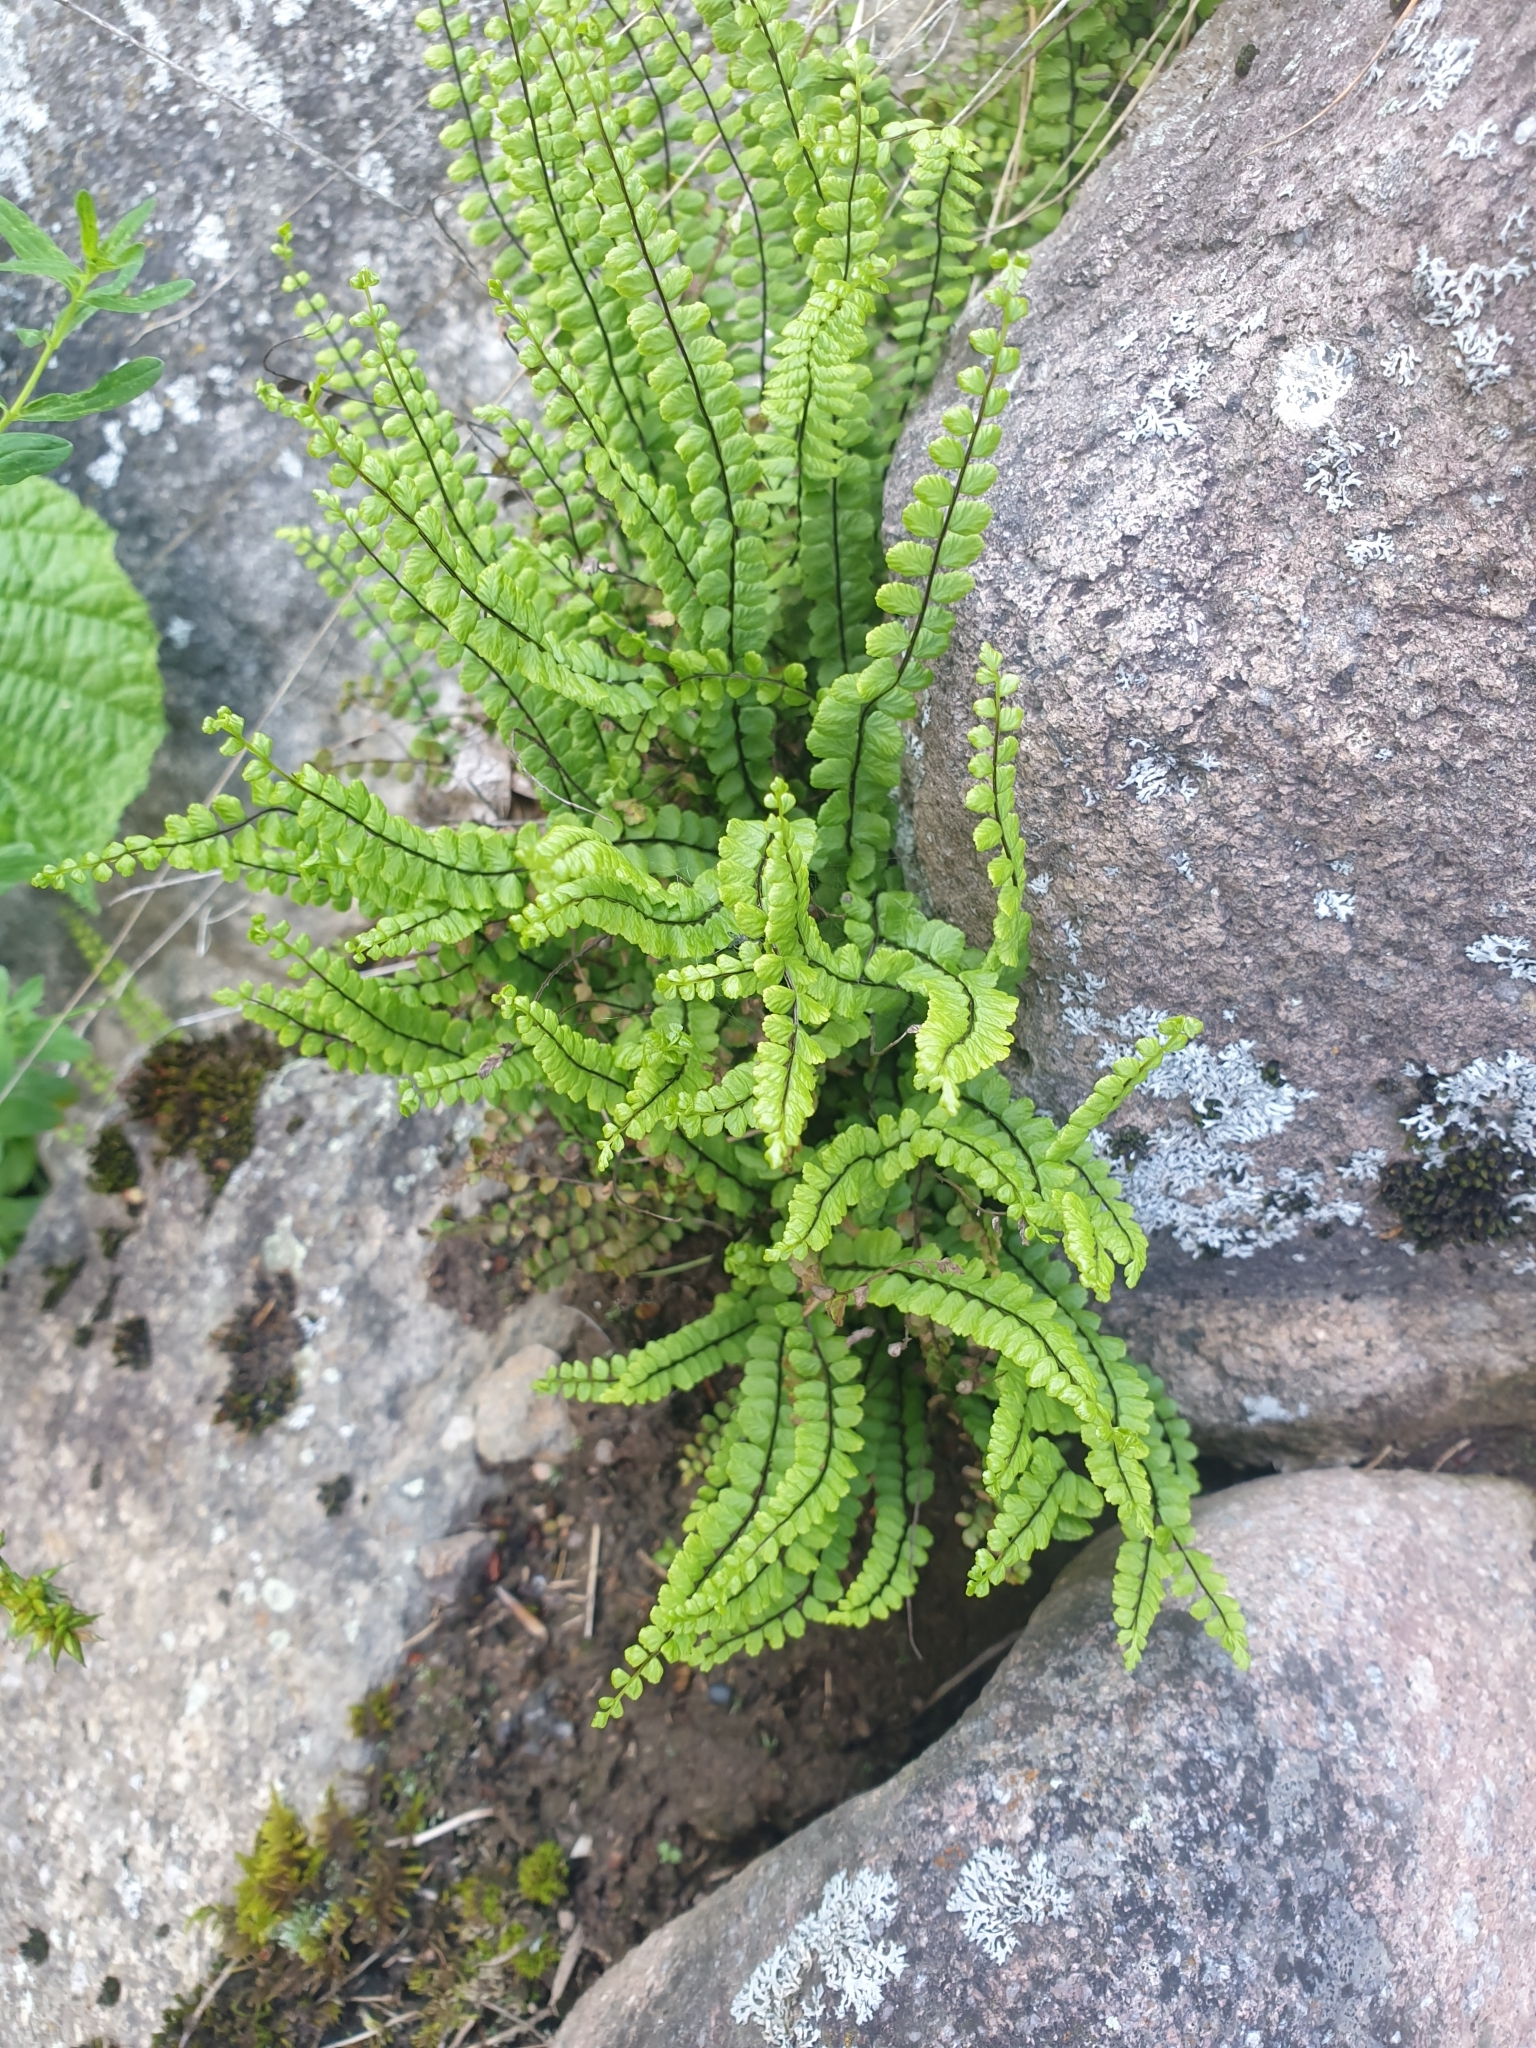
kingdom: Plantae
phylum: Tracheophyta
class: Polypodiopsida
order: Polypodiales
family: Aspleniaceae
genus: Asplenium
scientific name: Asplenium trichomanes
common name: Maidenhair spleenwort
